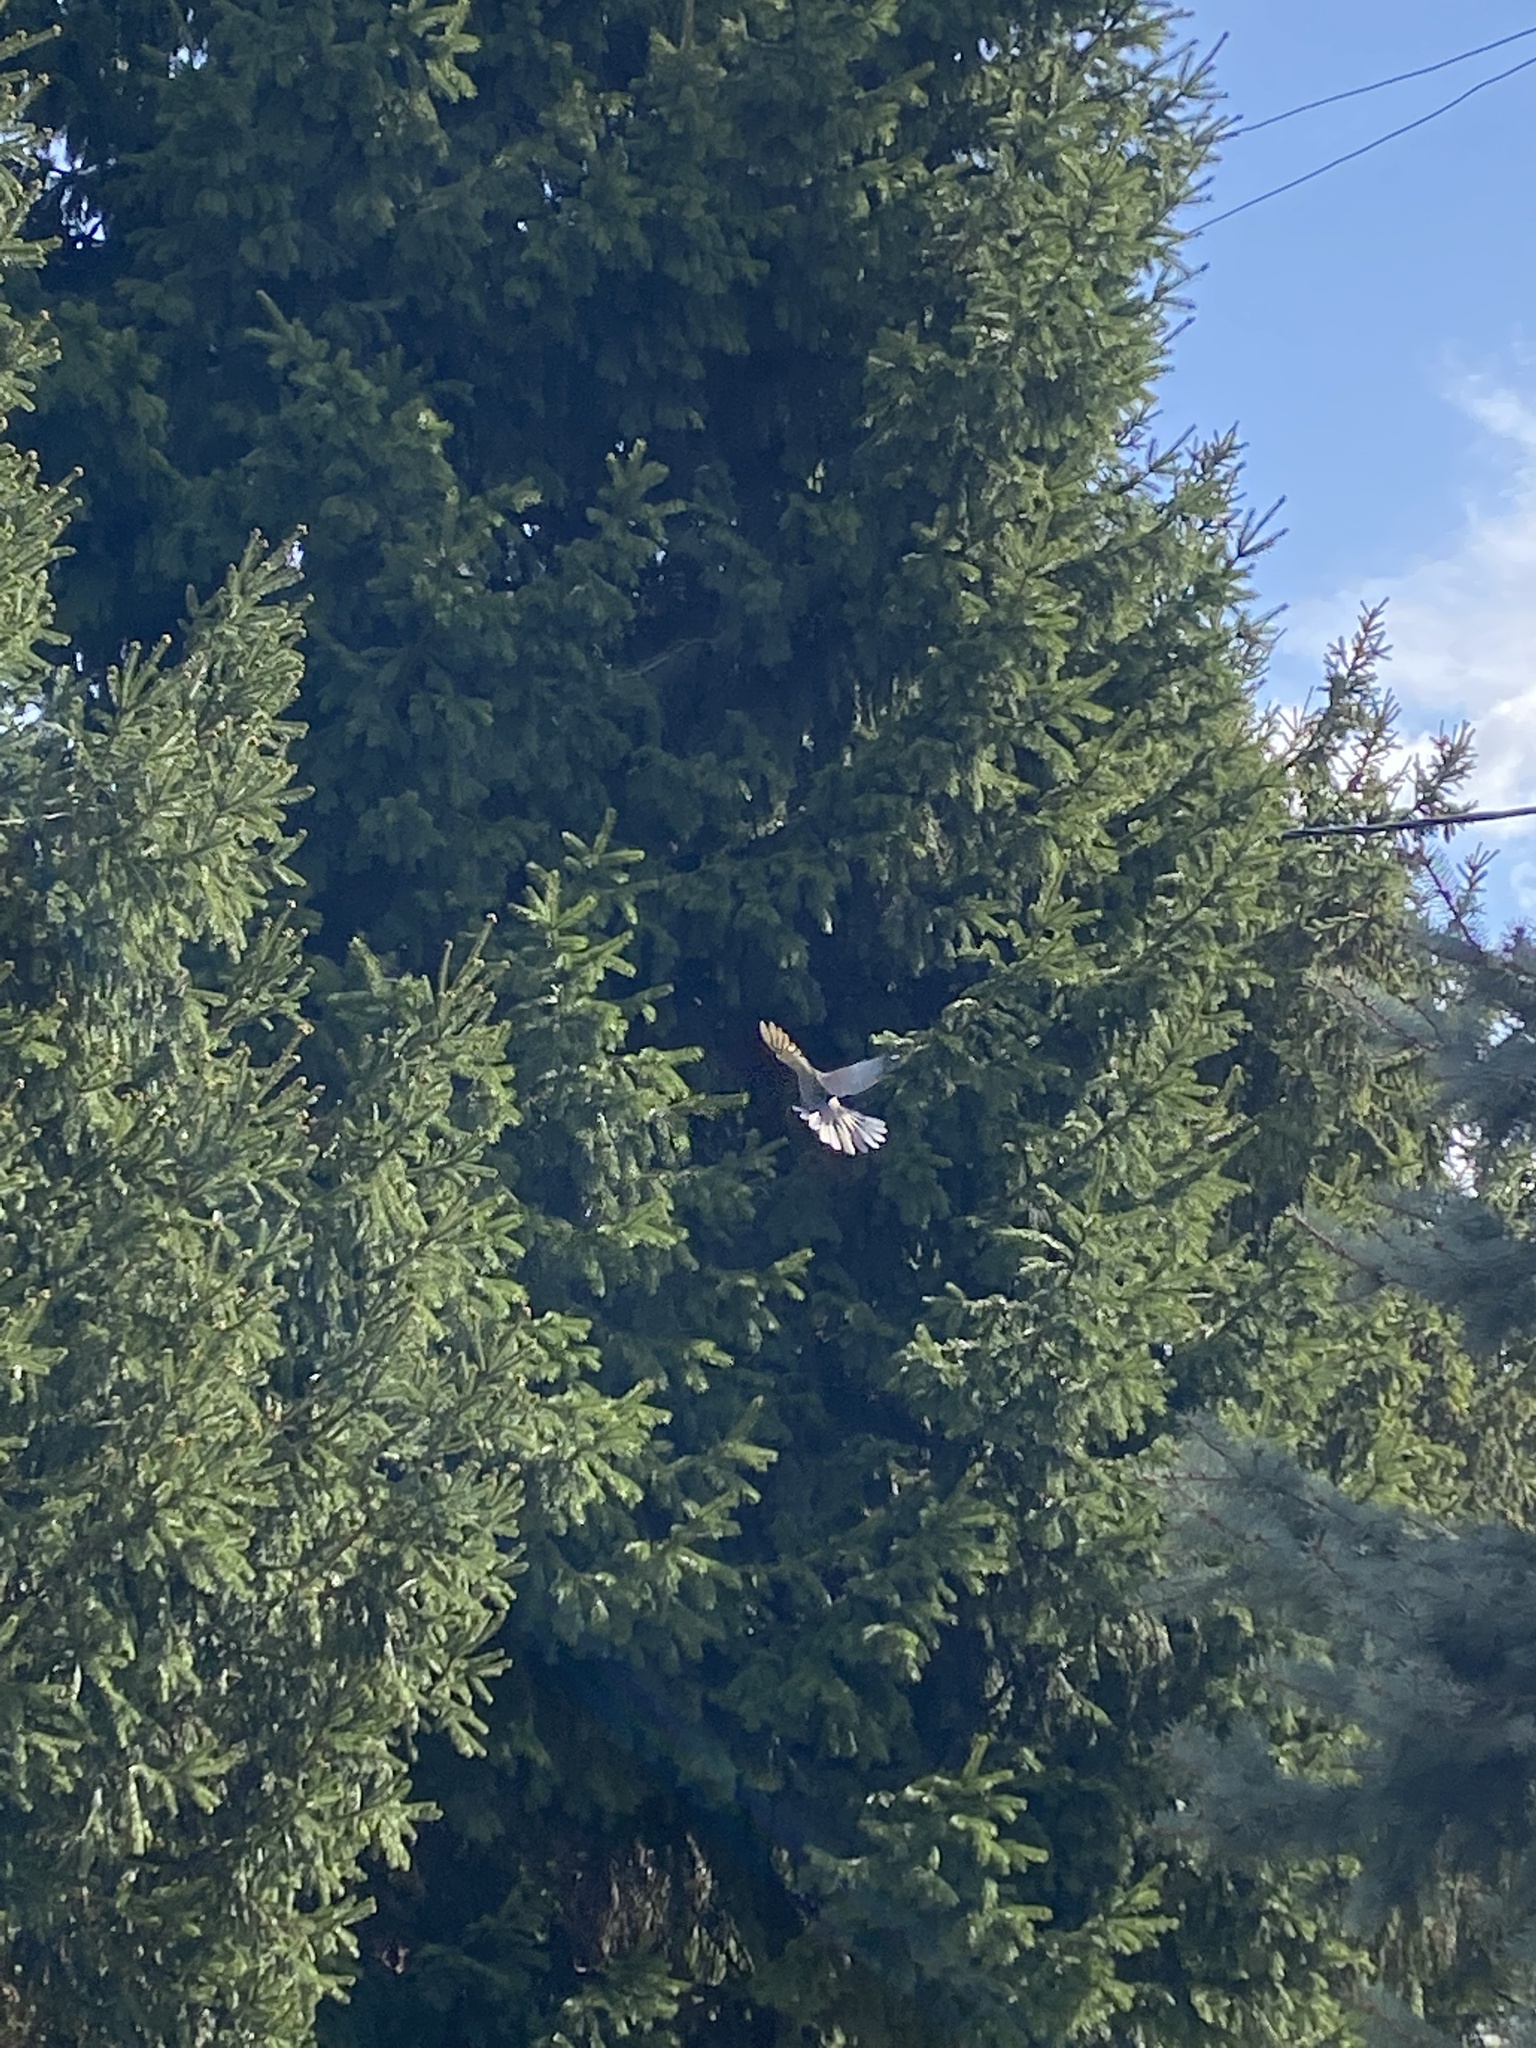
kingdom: Animalia
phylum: Chordata
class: Aves
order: Columbiformes
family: Columbidae
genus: Streptopelia
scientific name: Streptopelia decaocto
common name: Eurasian collared dove
